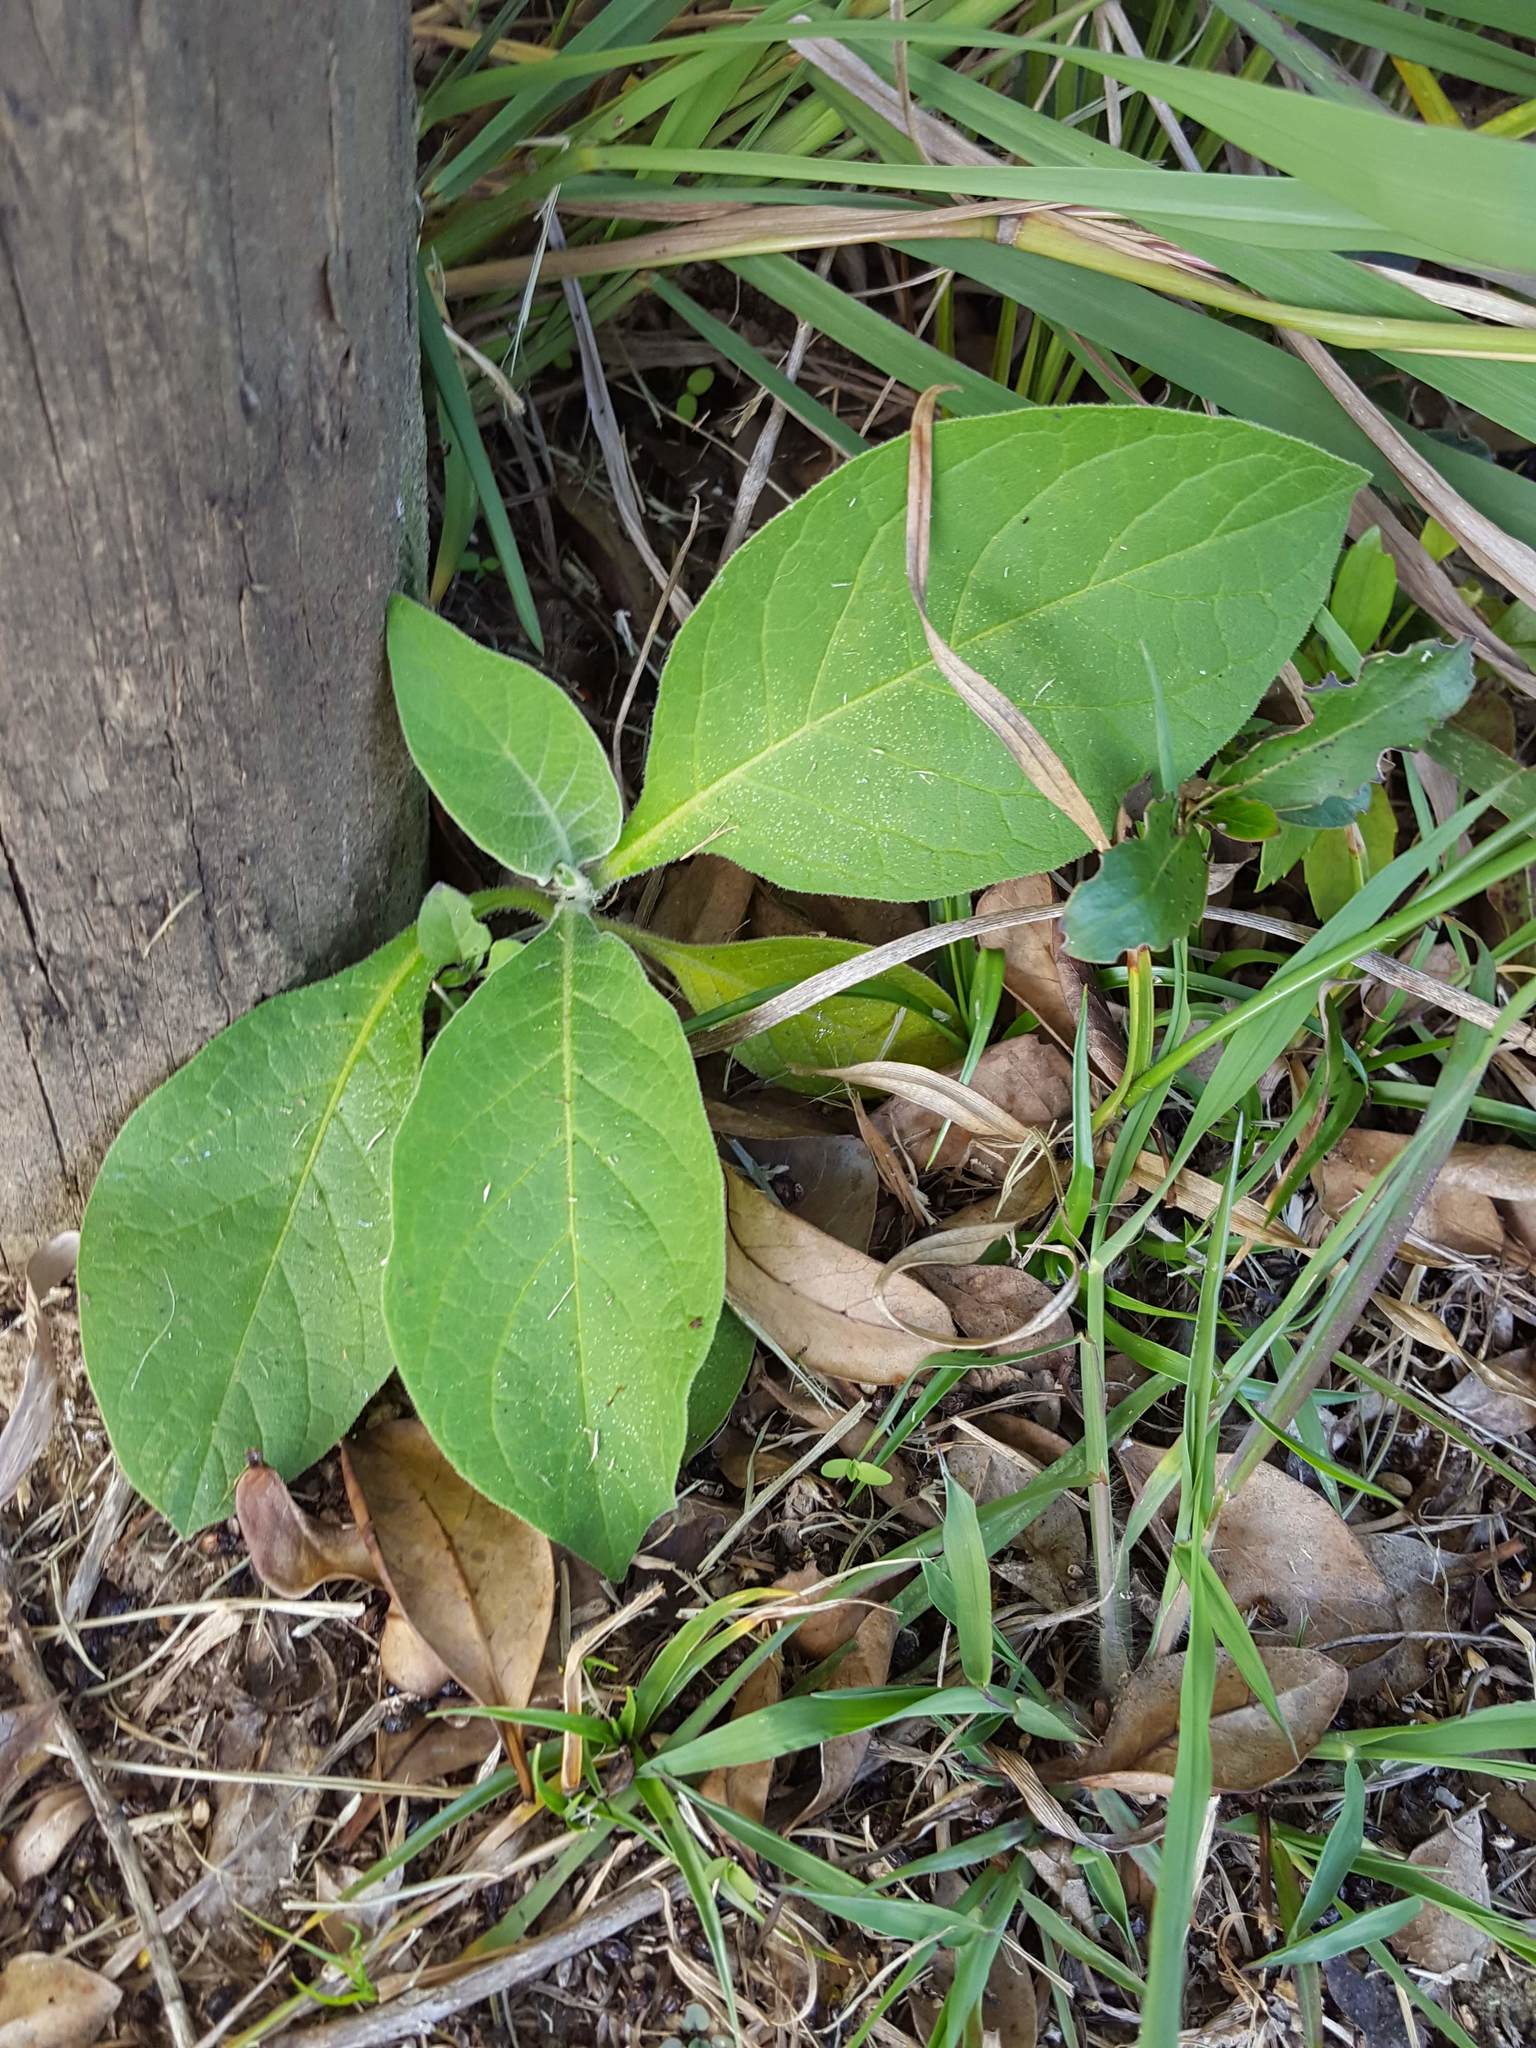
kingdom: Plantae
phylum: Tracheophyta
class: Magnoliopsida
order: Solanales
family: Solanaceae
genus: Solanum
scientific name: Solanum mauritianum
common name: Earleaf nightshade
